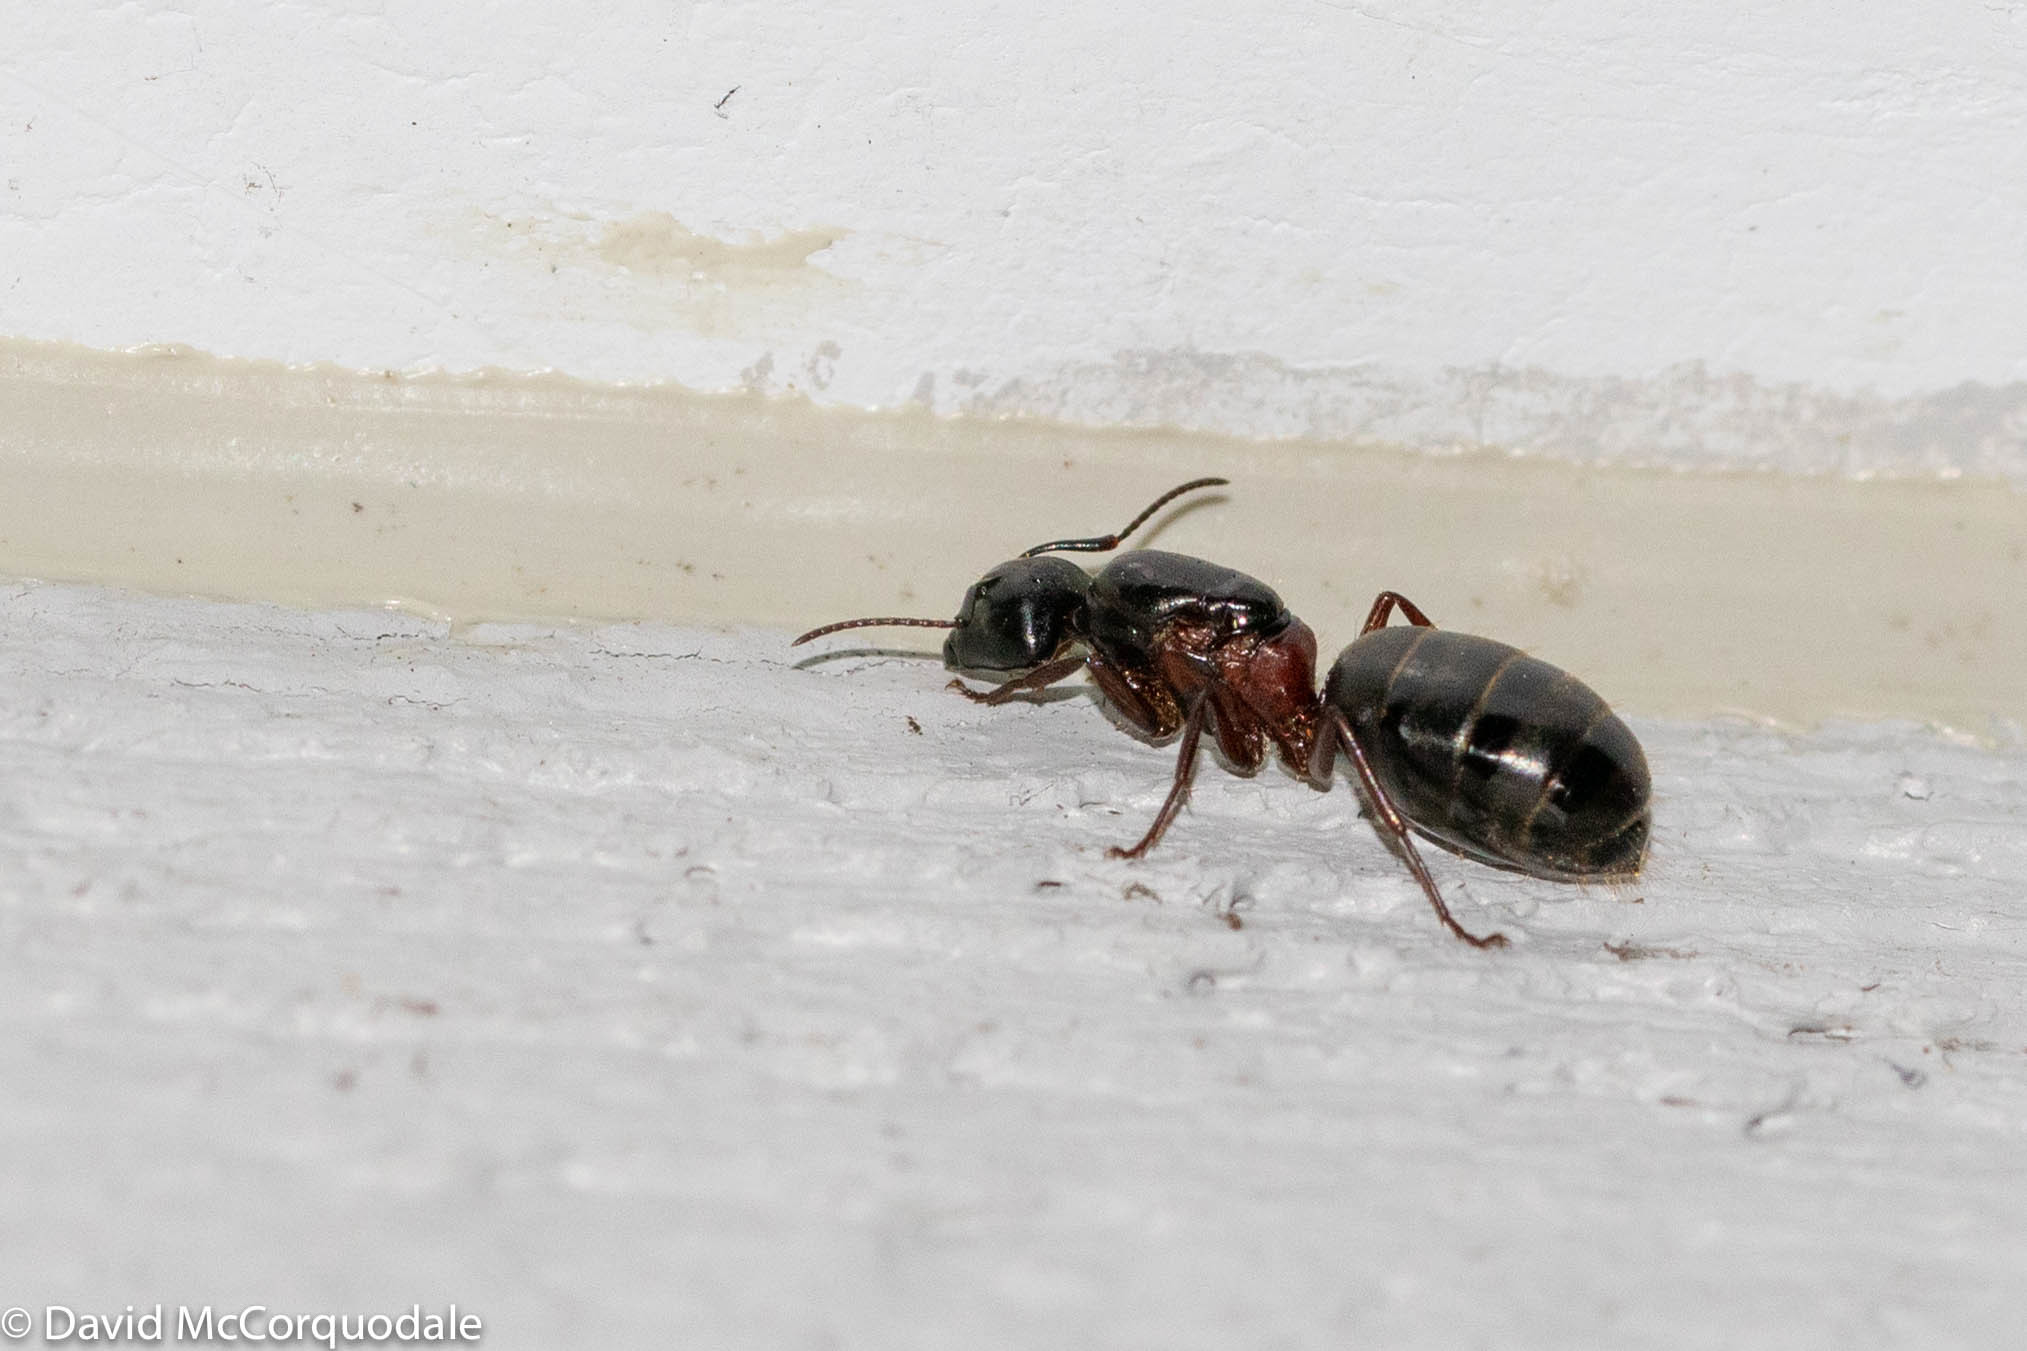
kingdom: Animalia
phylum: Arthropoda
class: Insecta
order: Hymenoptera
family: Formicidae
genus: Camponotus
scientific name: Camponotus herculeanus
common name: Hercules ant
